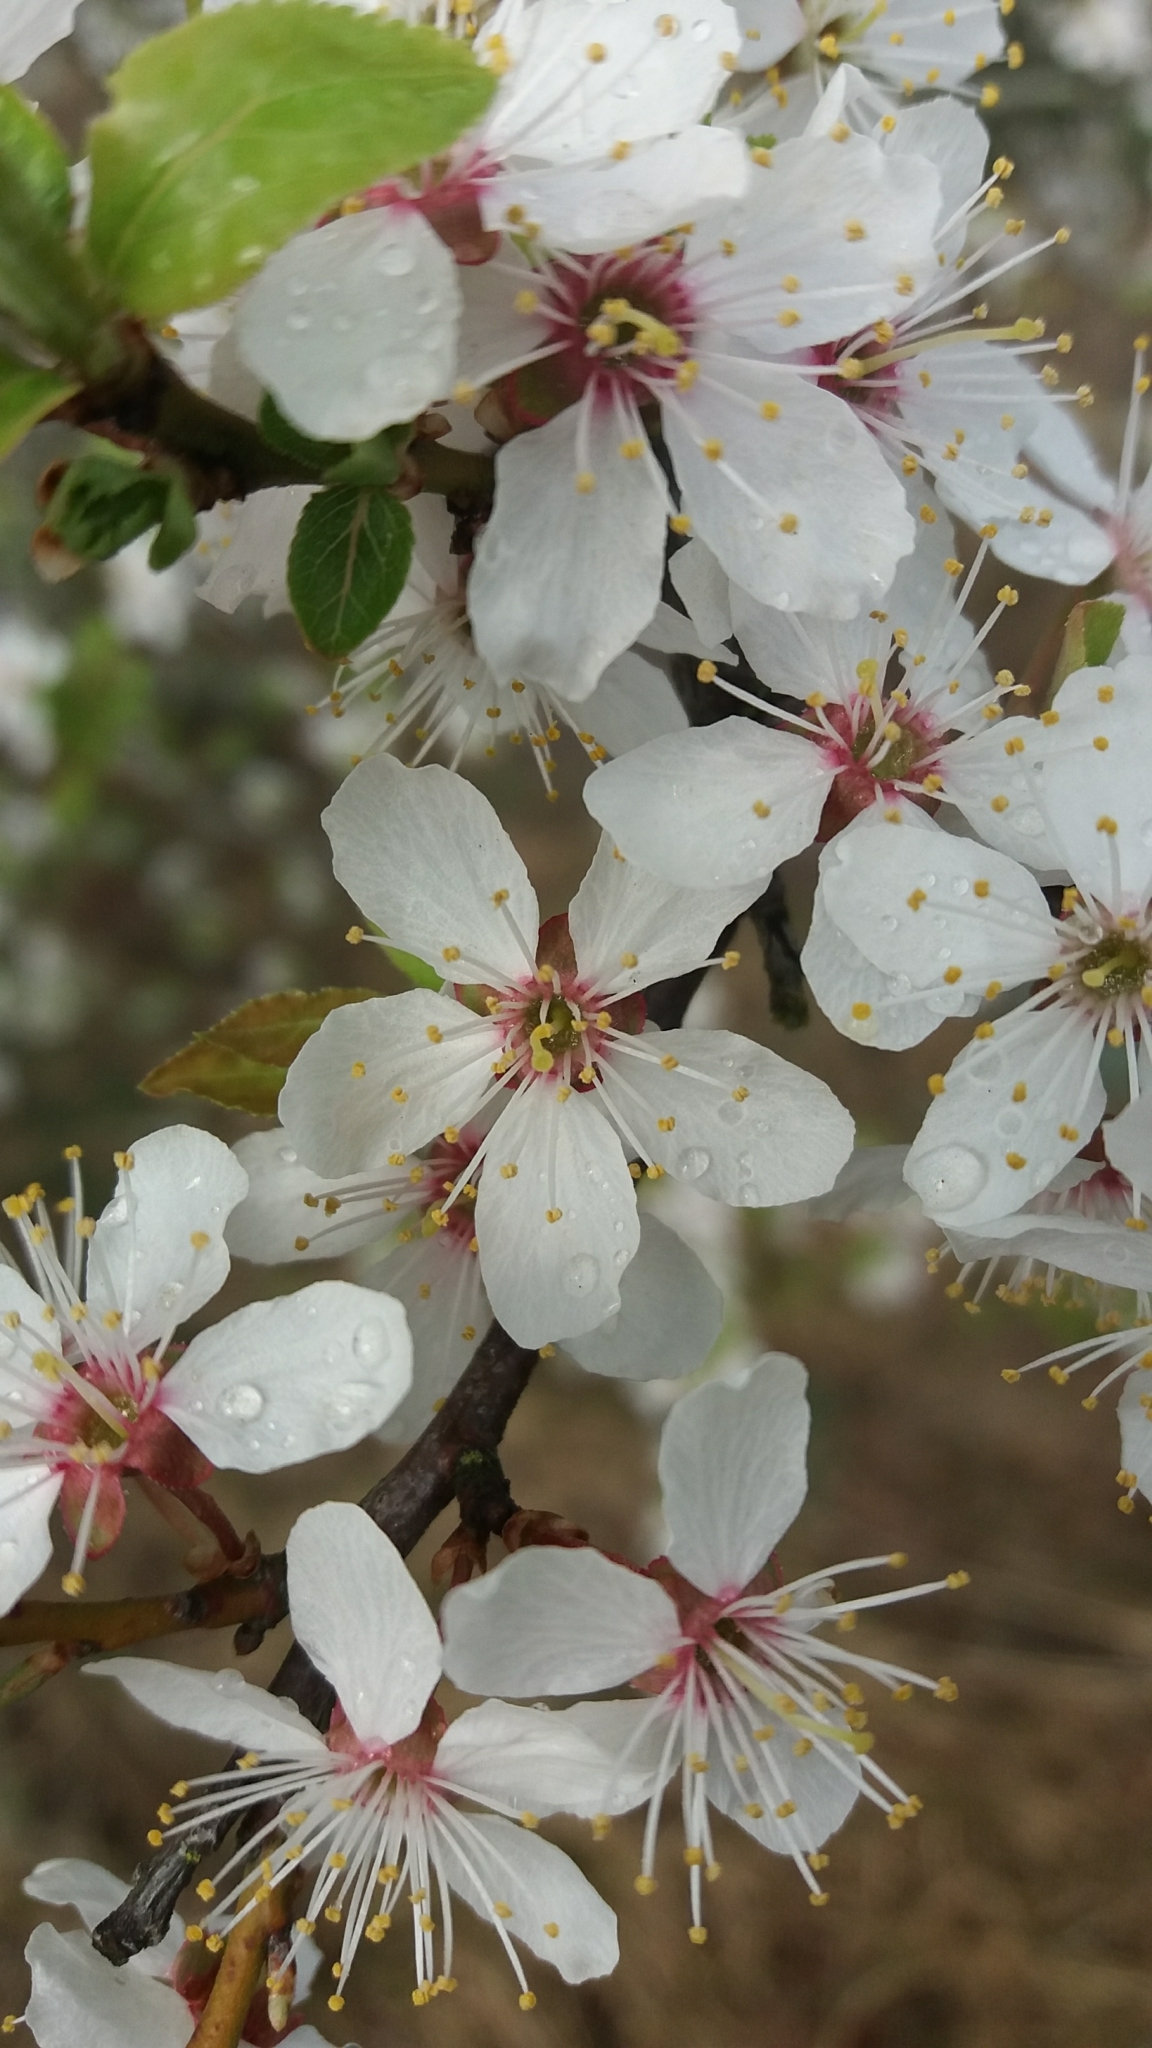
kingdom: Plantae
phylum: Tracheophyta
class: Magnoliopsida
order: Rosales
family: Rosaceae
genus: Prunus
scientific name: Prunus
